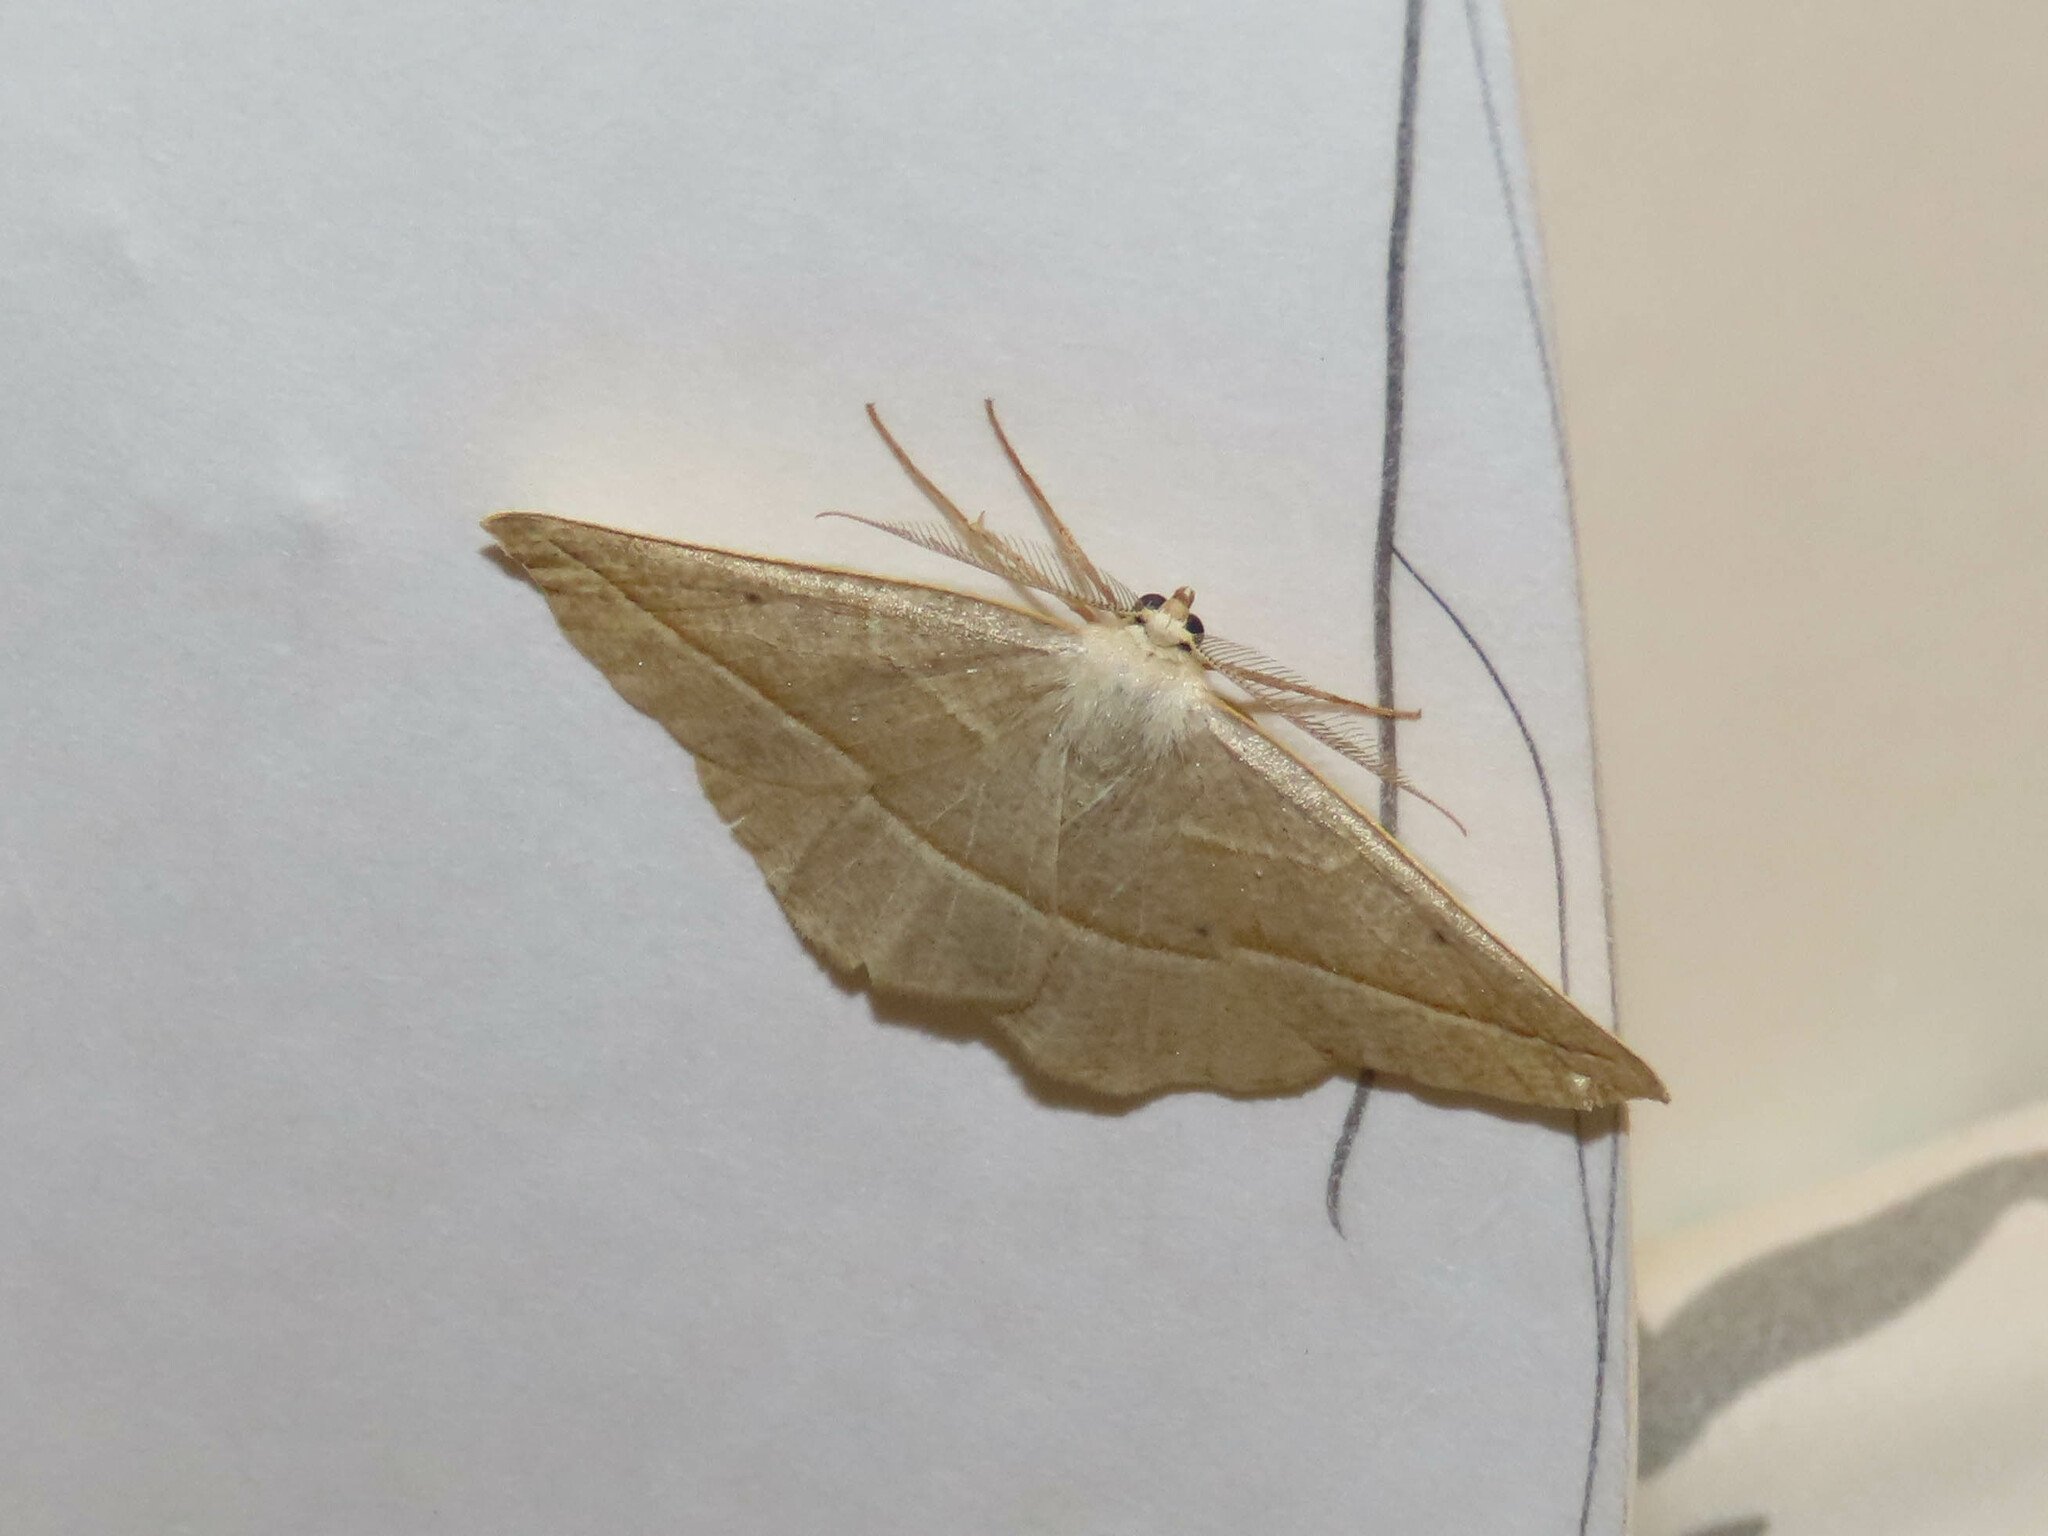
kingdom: Animalia
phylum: Arthropoda
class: Insecta
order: Lepidoptera
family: Geometridae
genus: Eusarca
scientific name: Eusarca confusaria
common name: Confused eusarca
